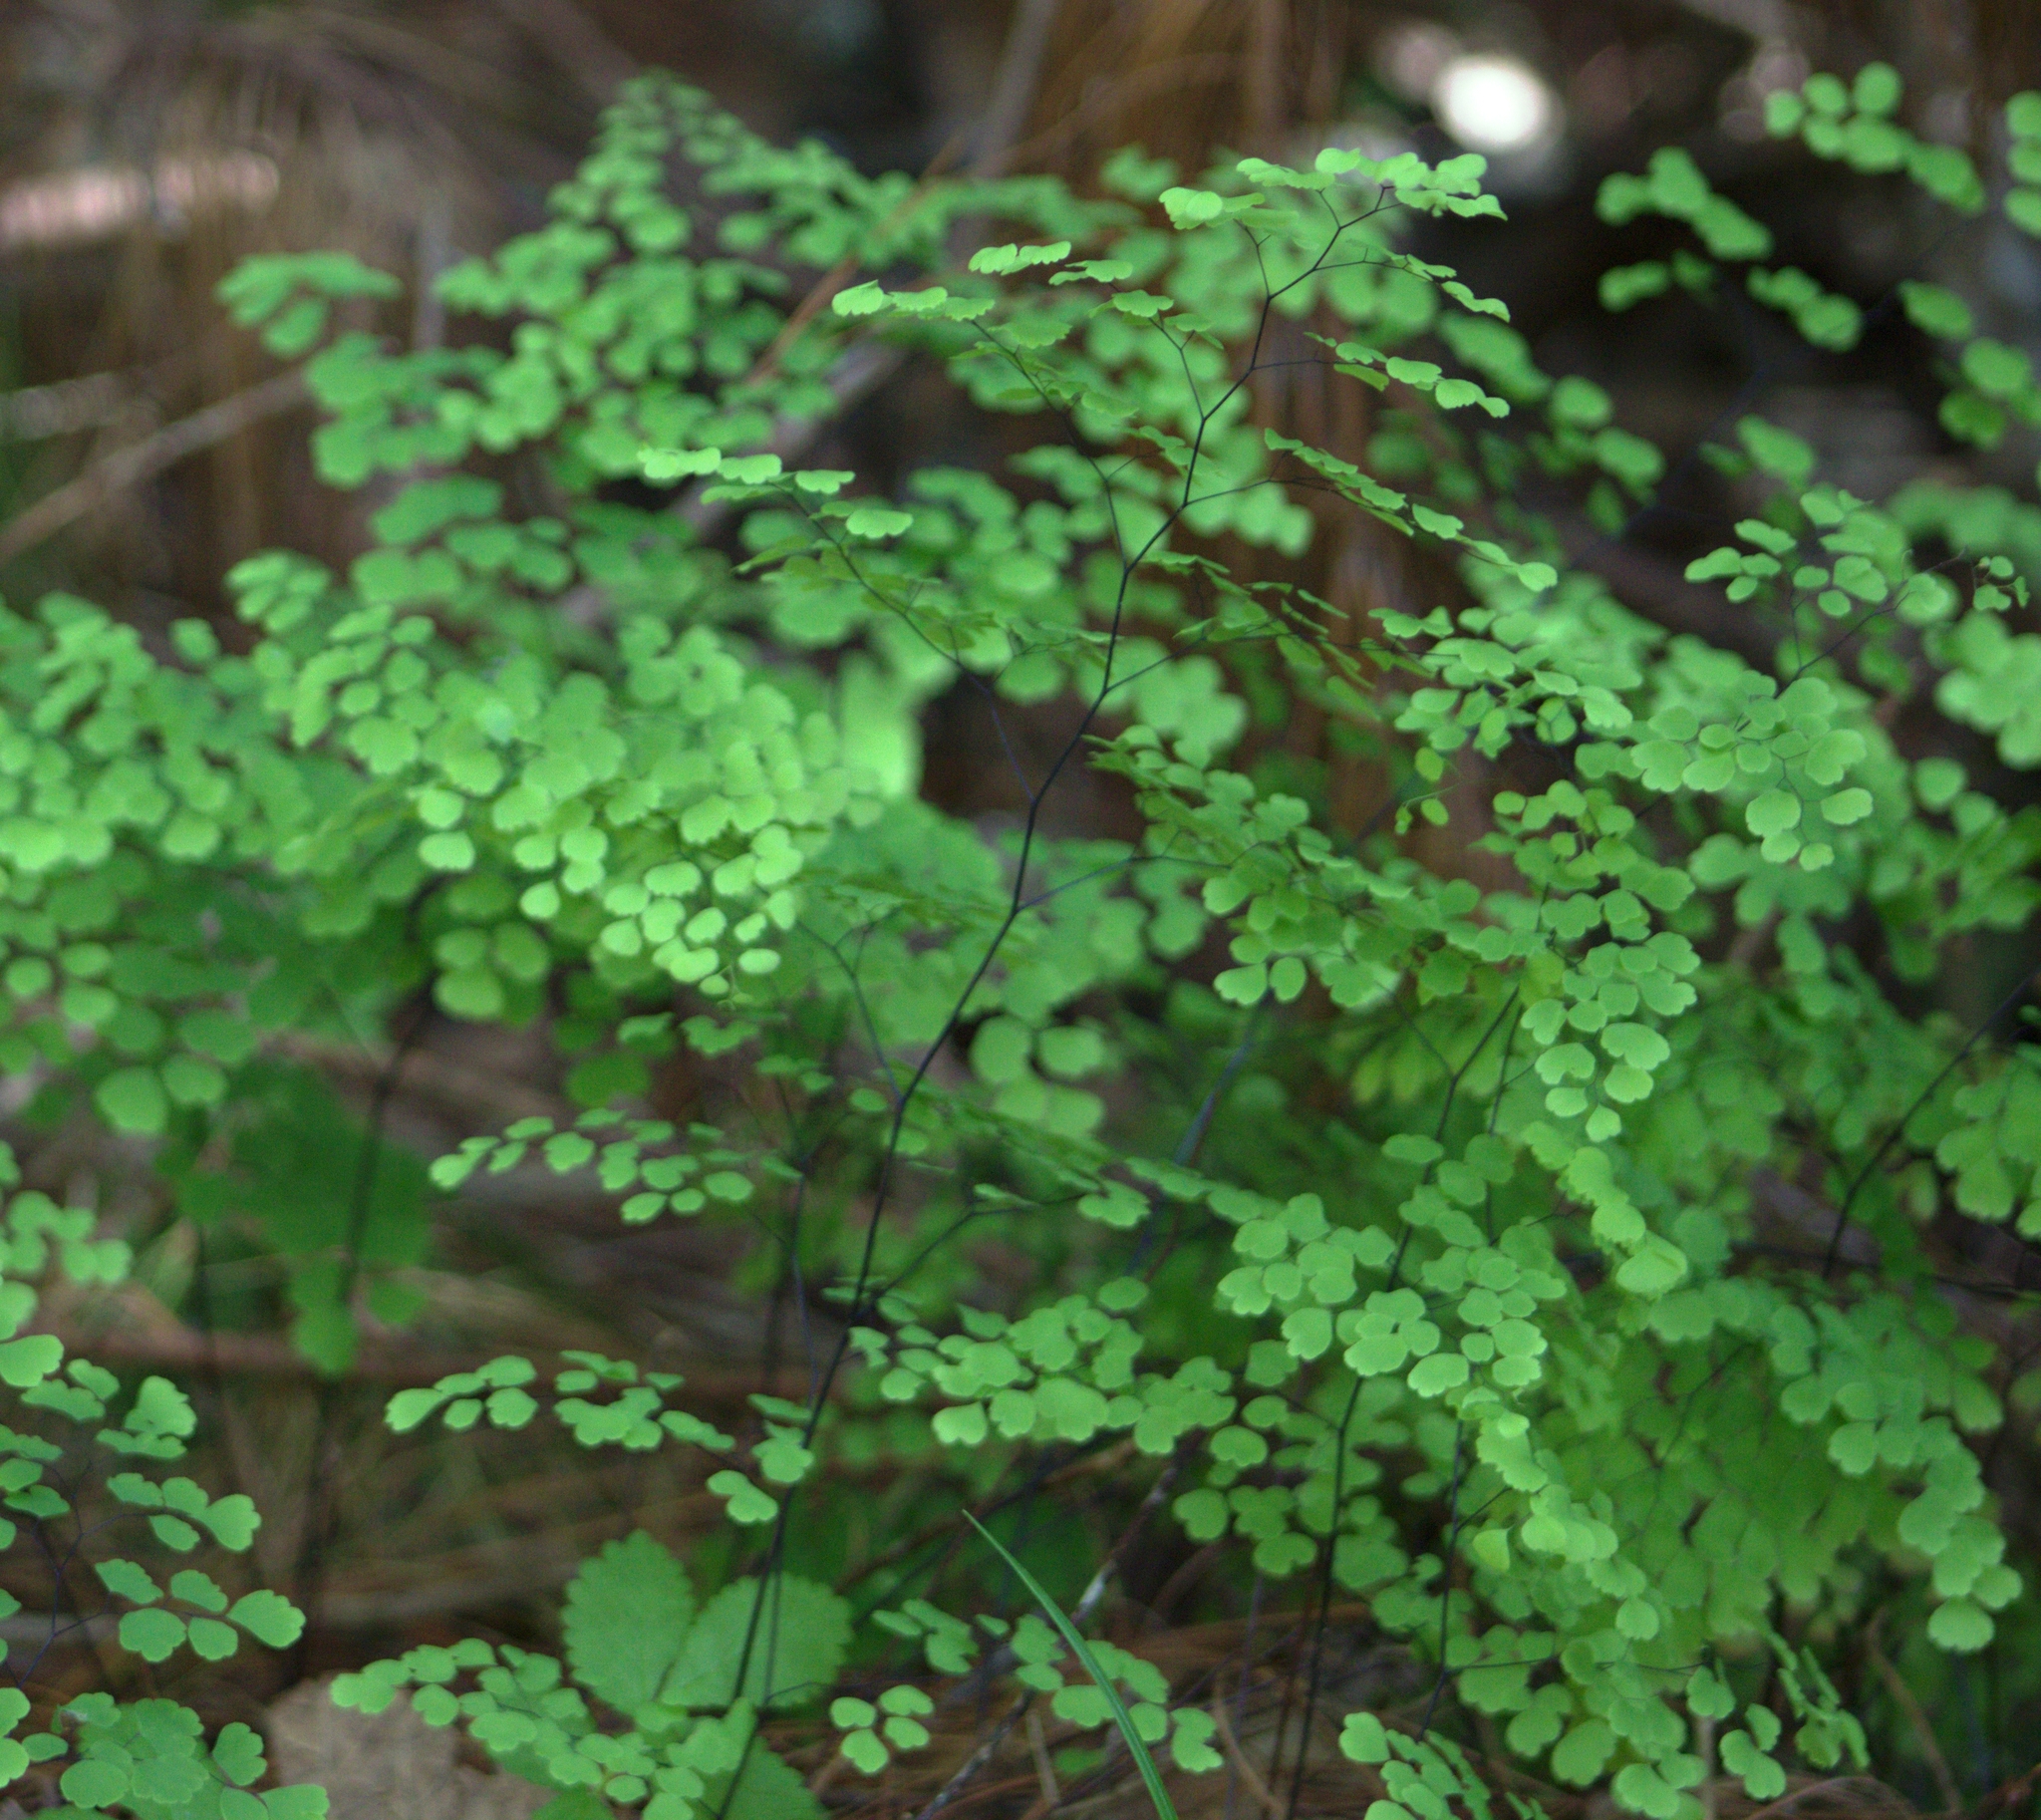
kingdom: Plantae
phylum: Tracheophyta
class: Polypodiopsida
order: Polypodiales
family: Pteridaceae
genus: Adiantum
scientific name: Adiantum poiretii
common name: Mexican maidenhair
